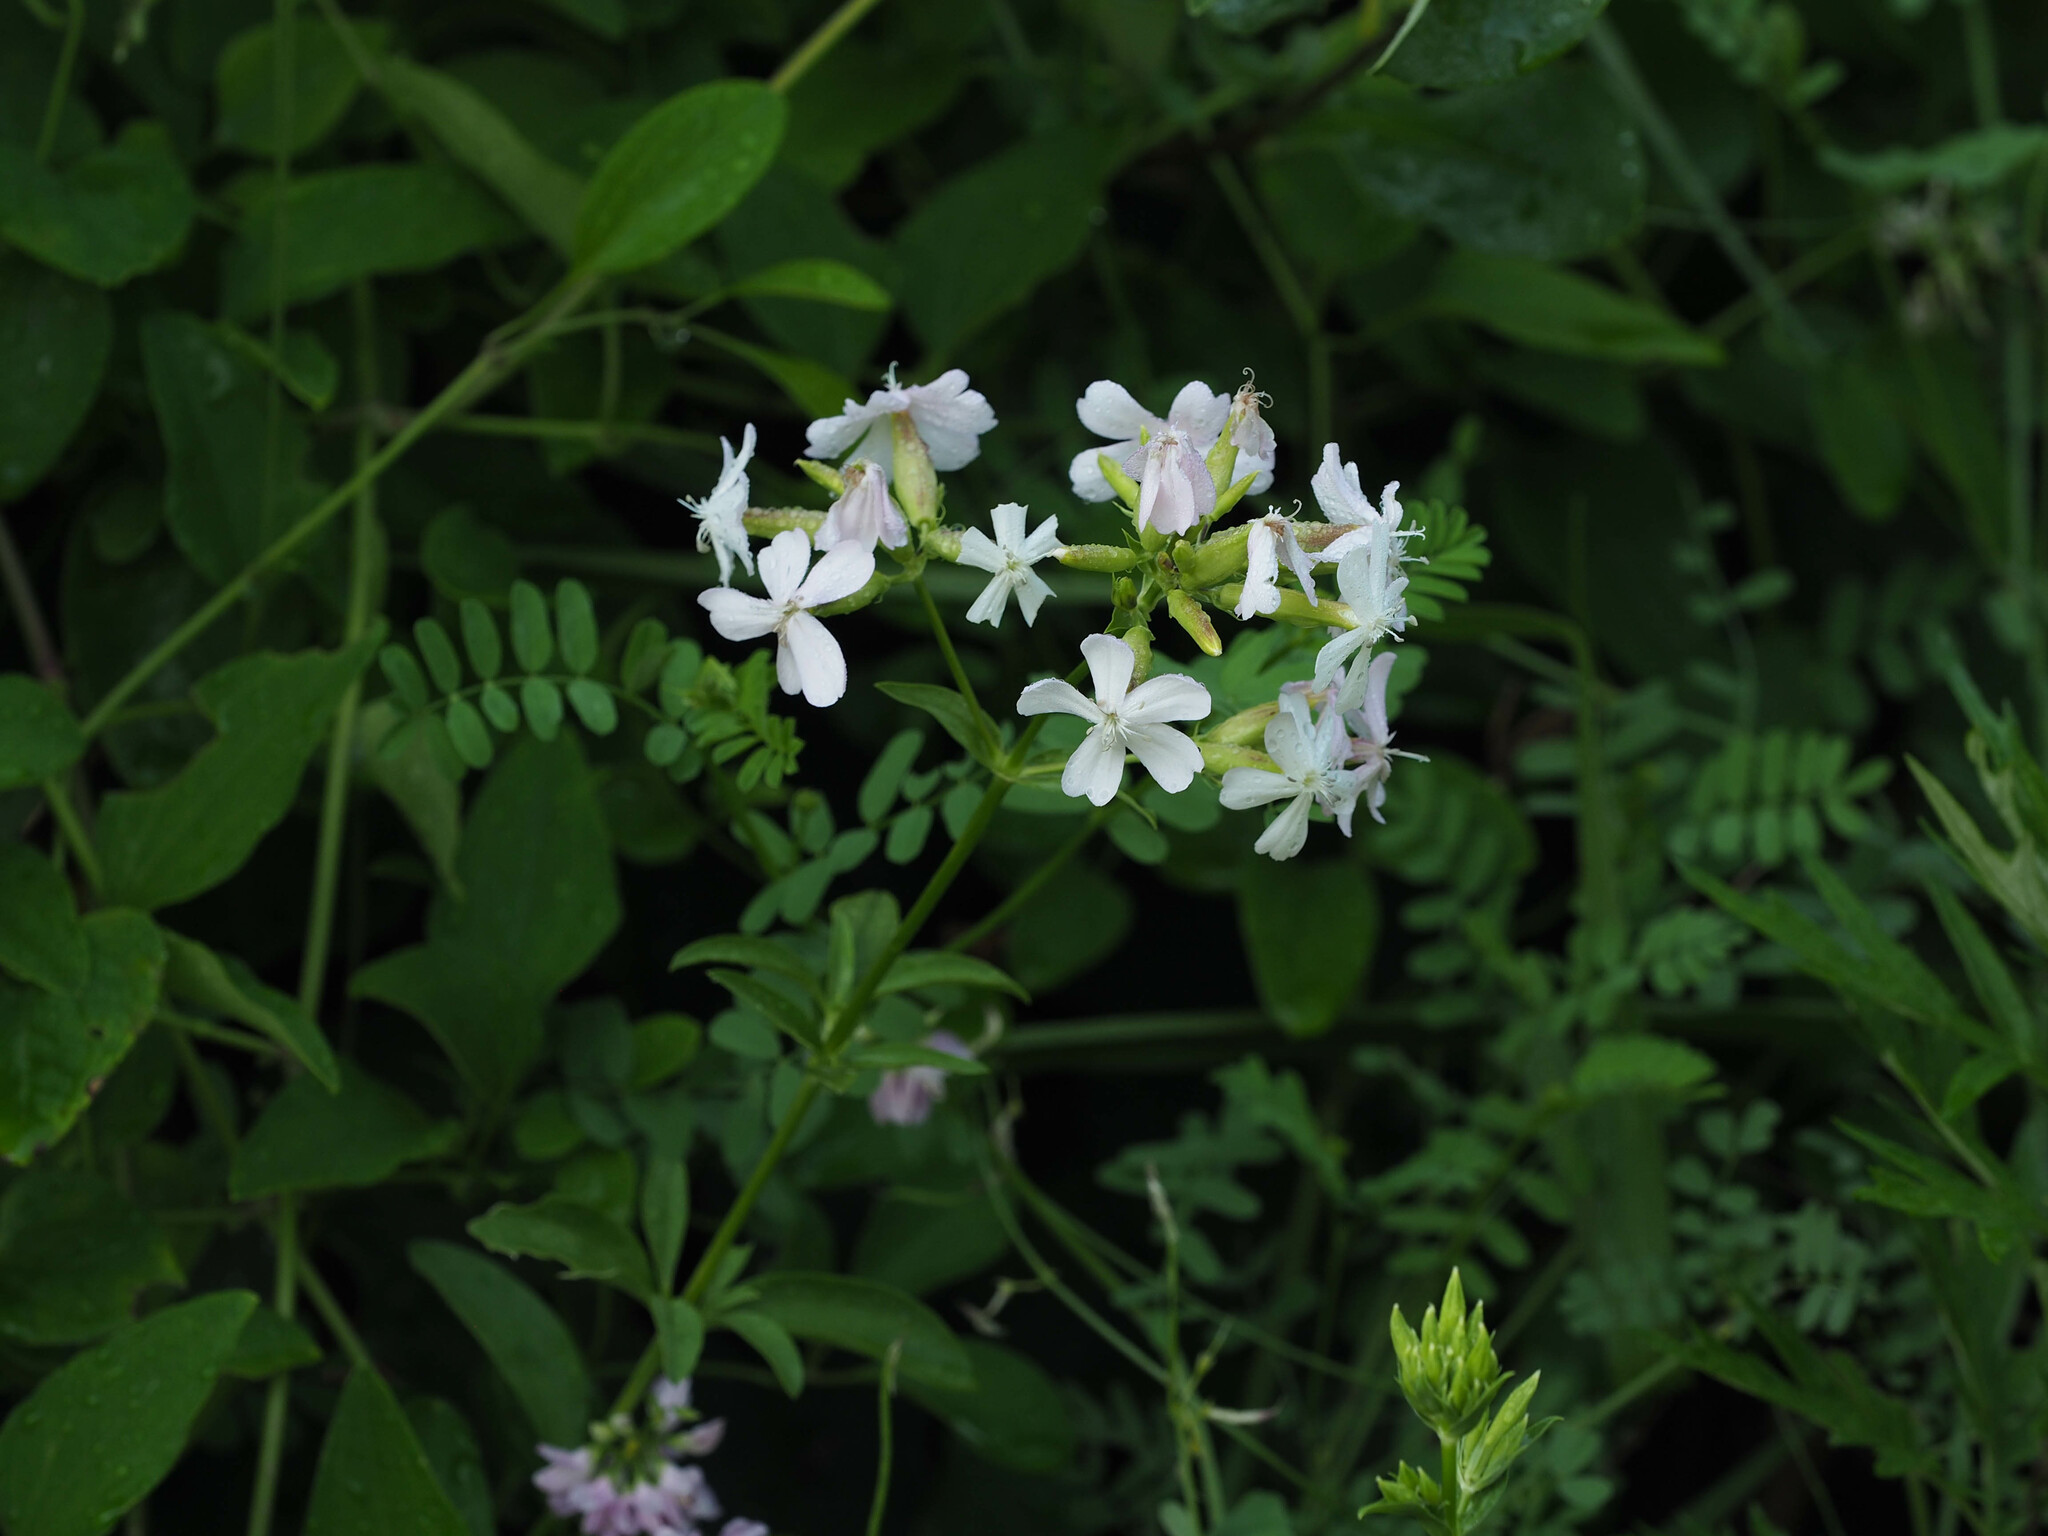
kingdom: Plantae
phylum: Tracheophyta
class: Magnoliopsida
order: Caryophyllales
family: Caryophyllaceae
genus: Saponaria
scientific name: Saponaria officinalis
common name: Soapwort
